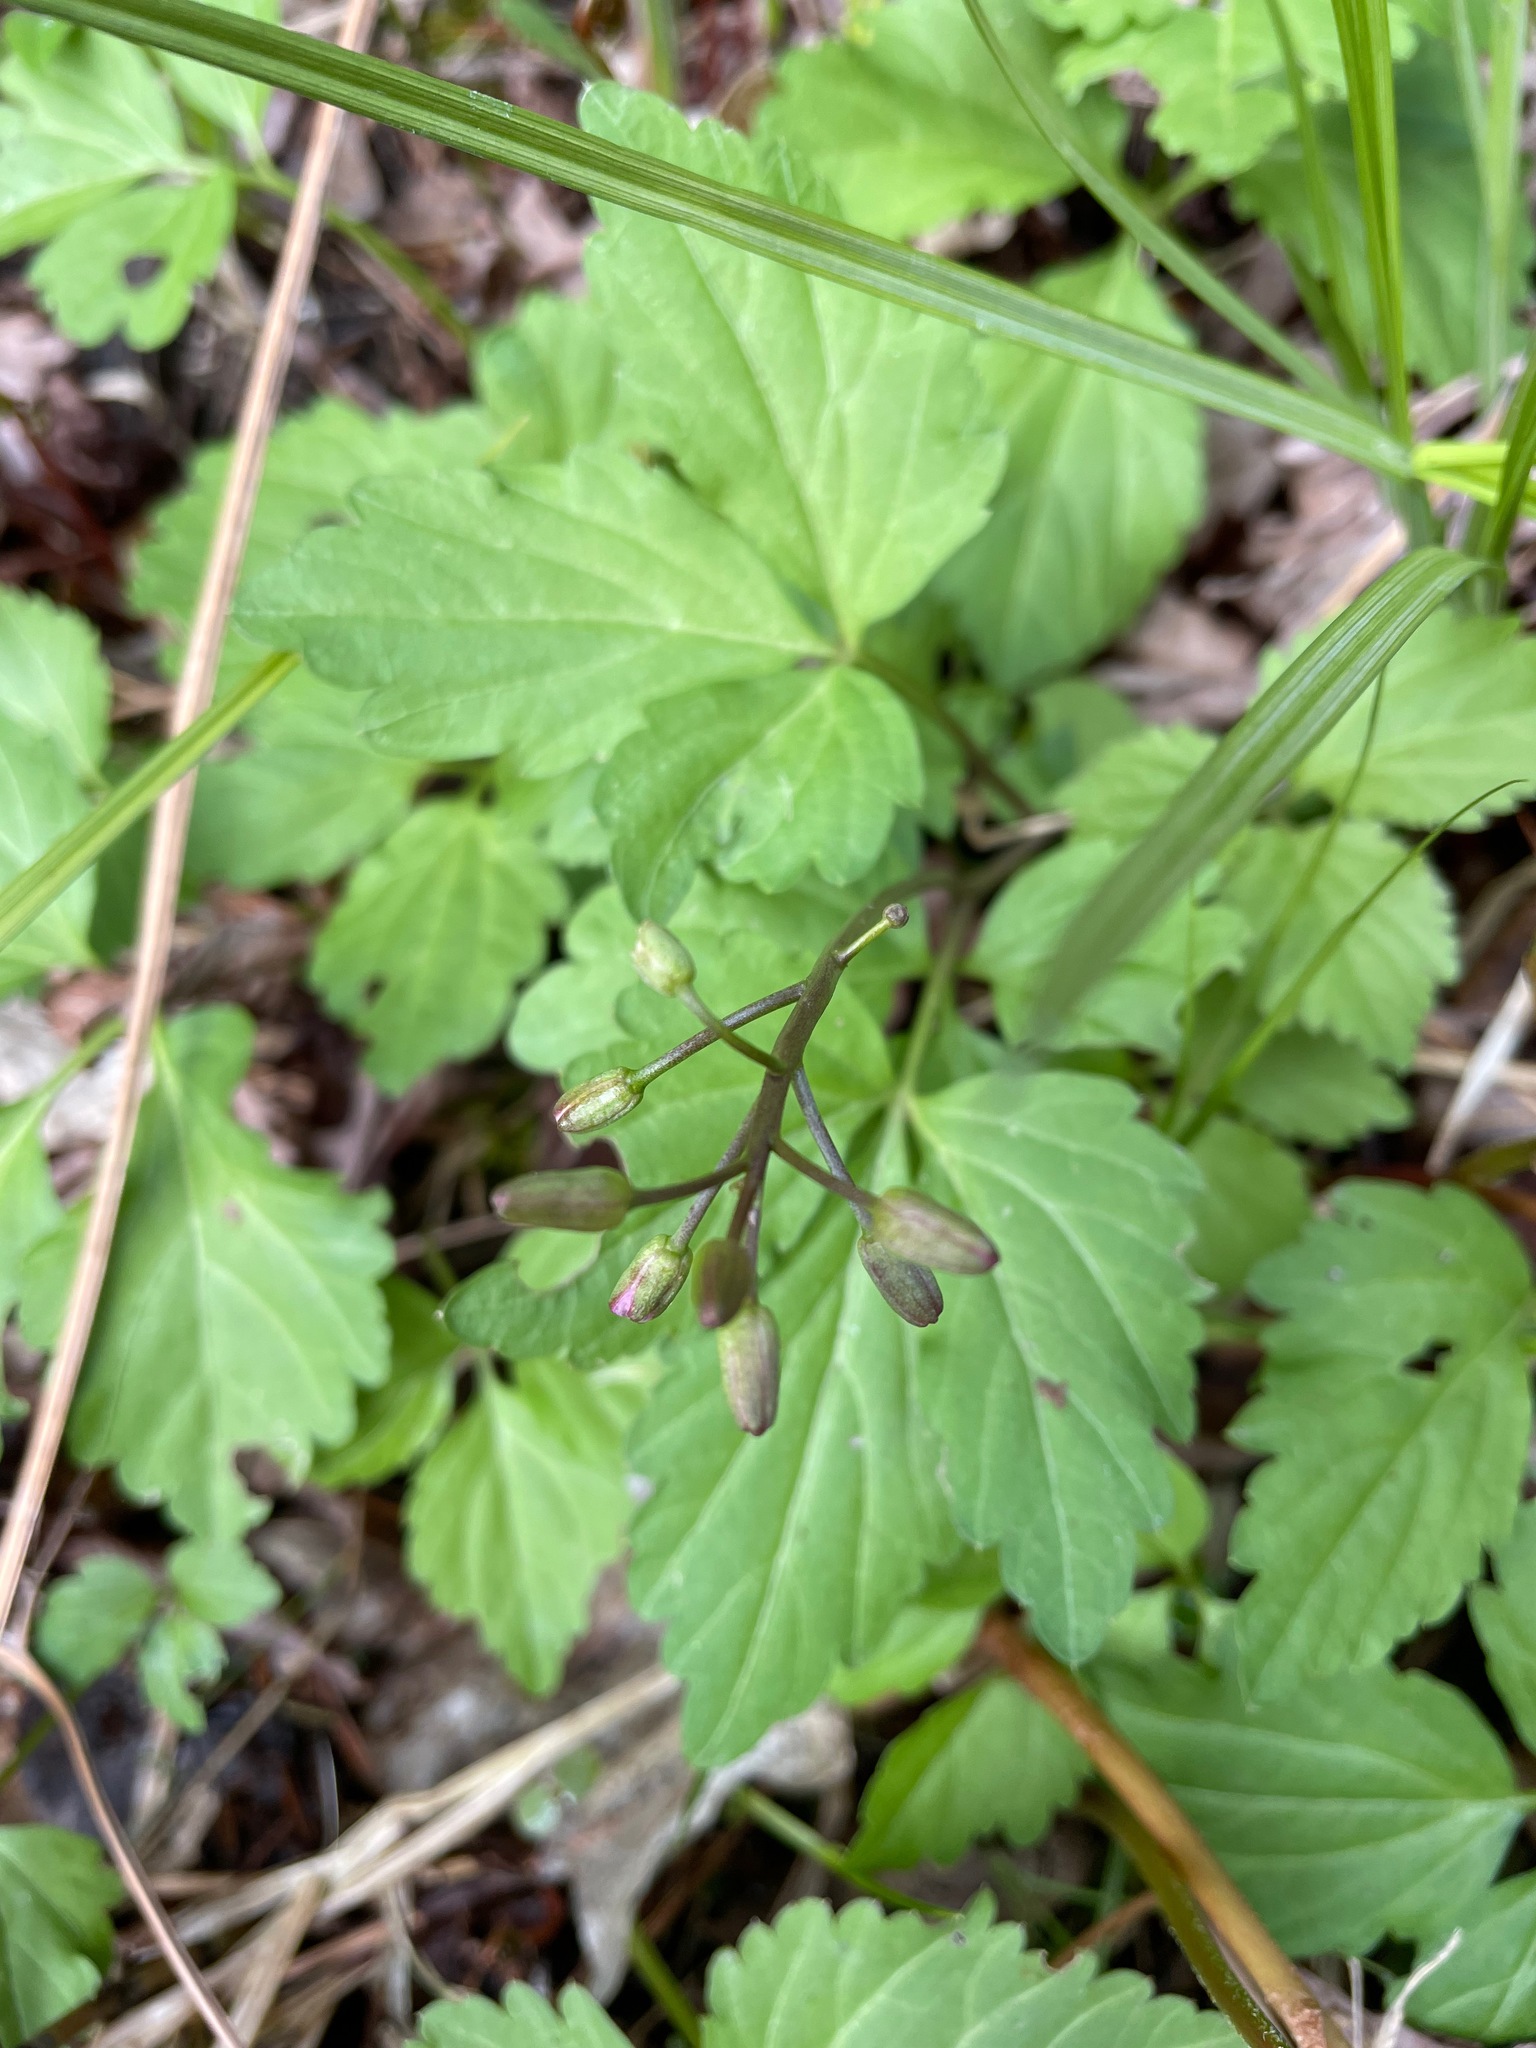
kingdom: Plantae
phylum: Tracheophyta
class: Magnoliopsida
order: Brassicales
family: Brassicaceae
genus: Cardamine
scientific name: Cardamine diphylla
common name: Broad-leaved toothwort
